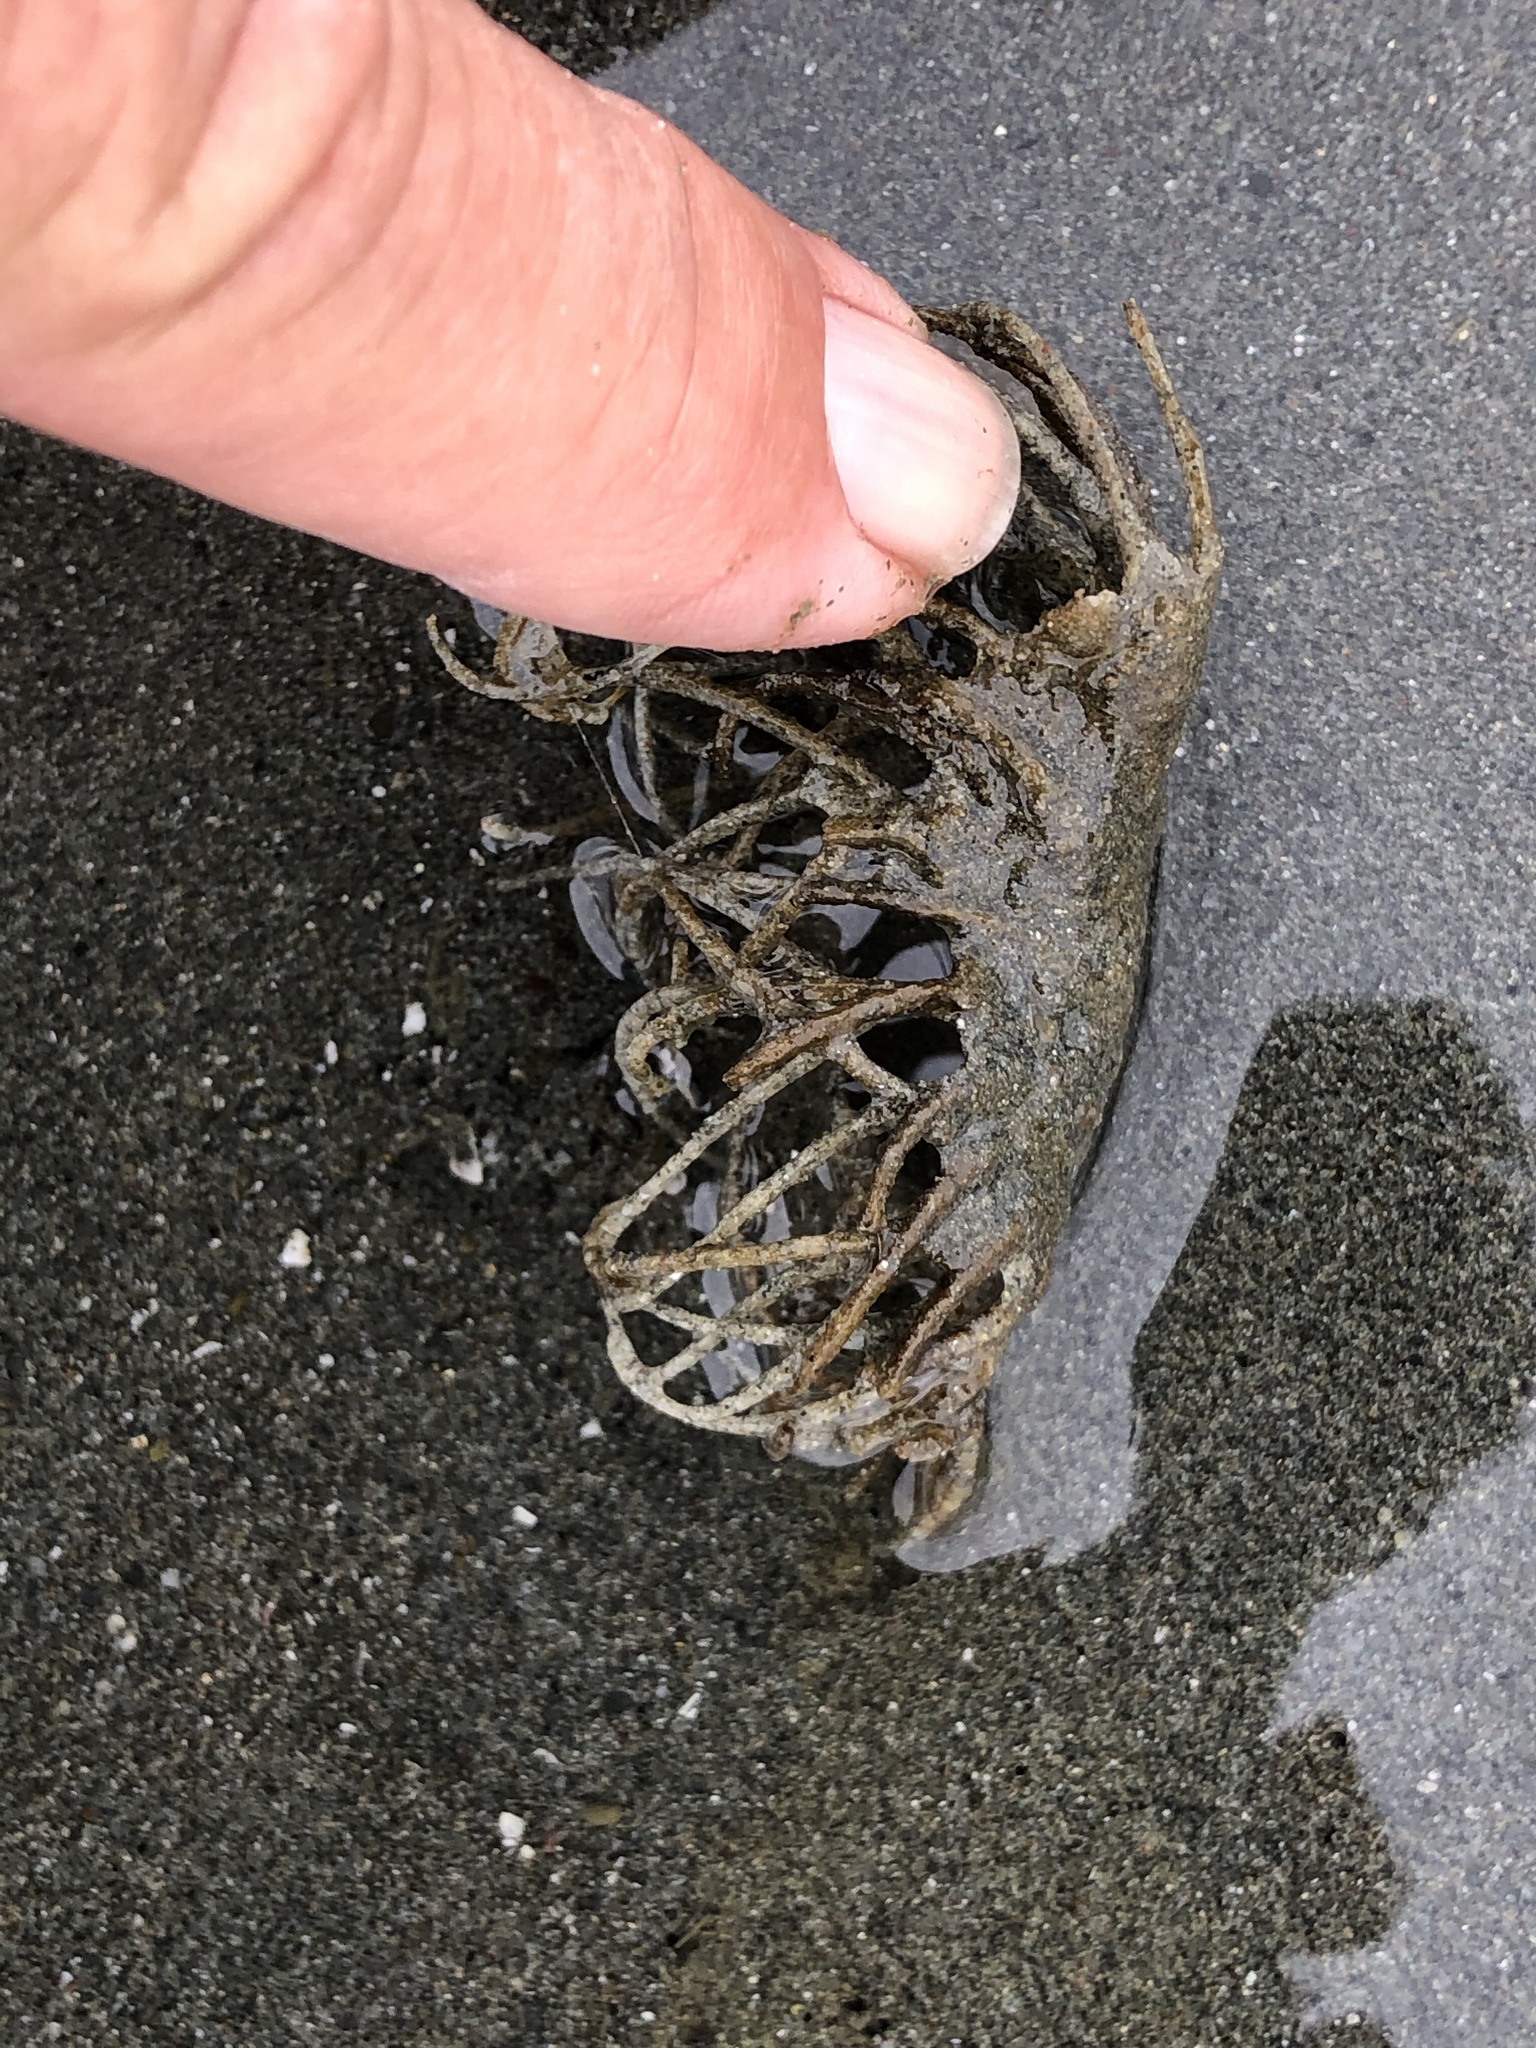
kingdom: Animalia
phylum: Annelida
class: Polychaeta
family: Terebellidae
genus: Pista
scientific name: Pista pacifica
